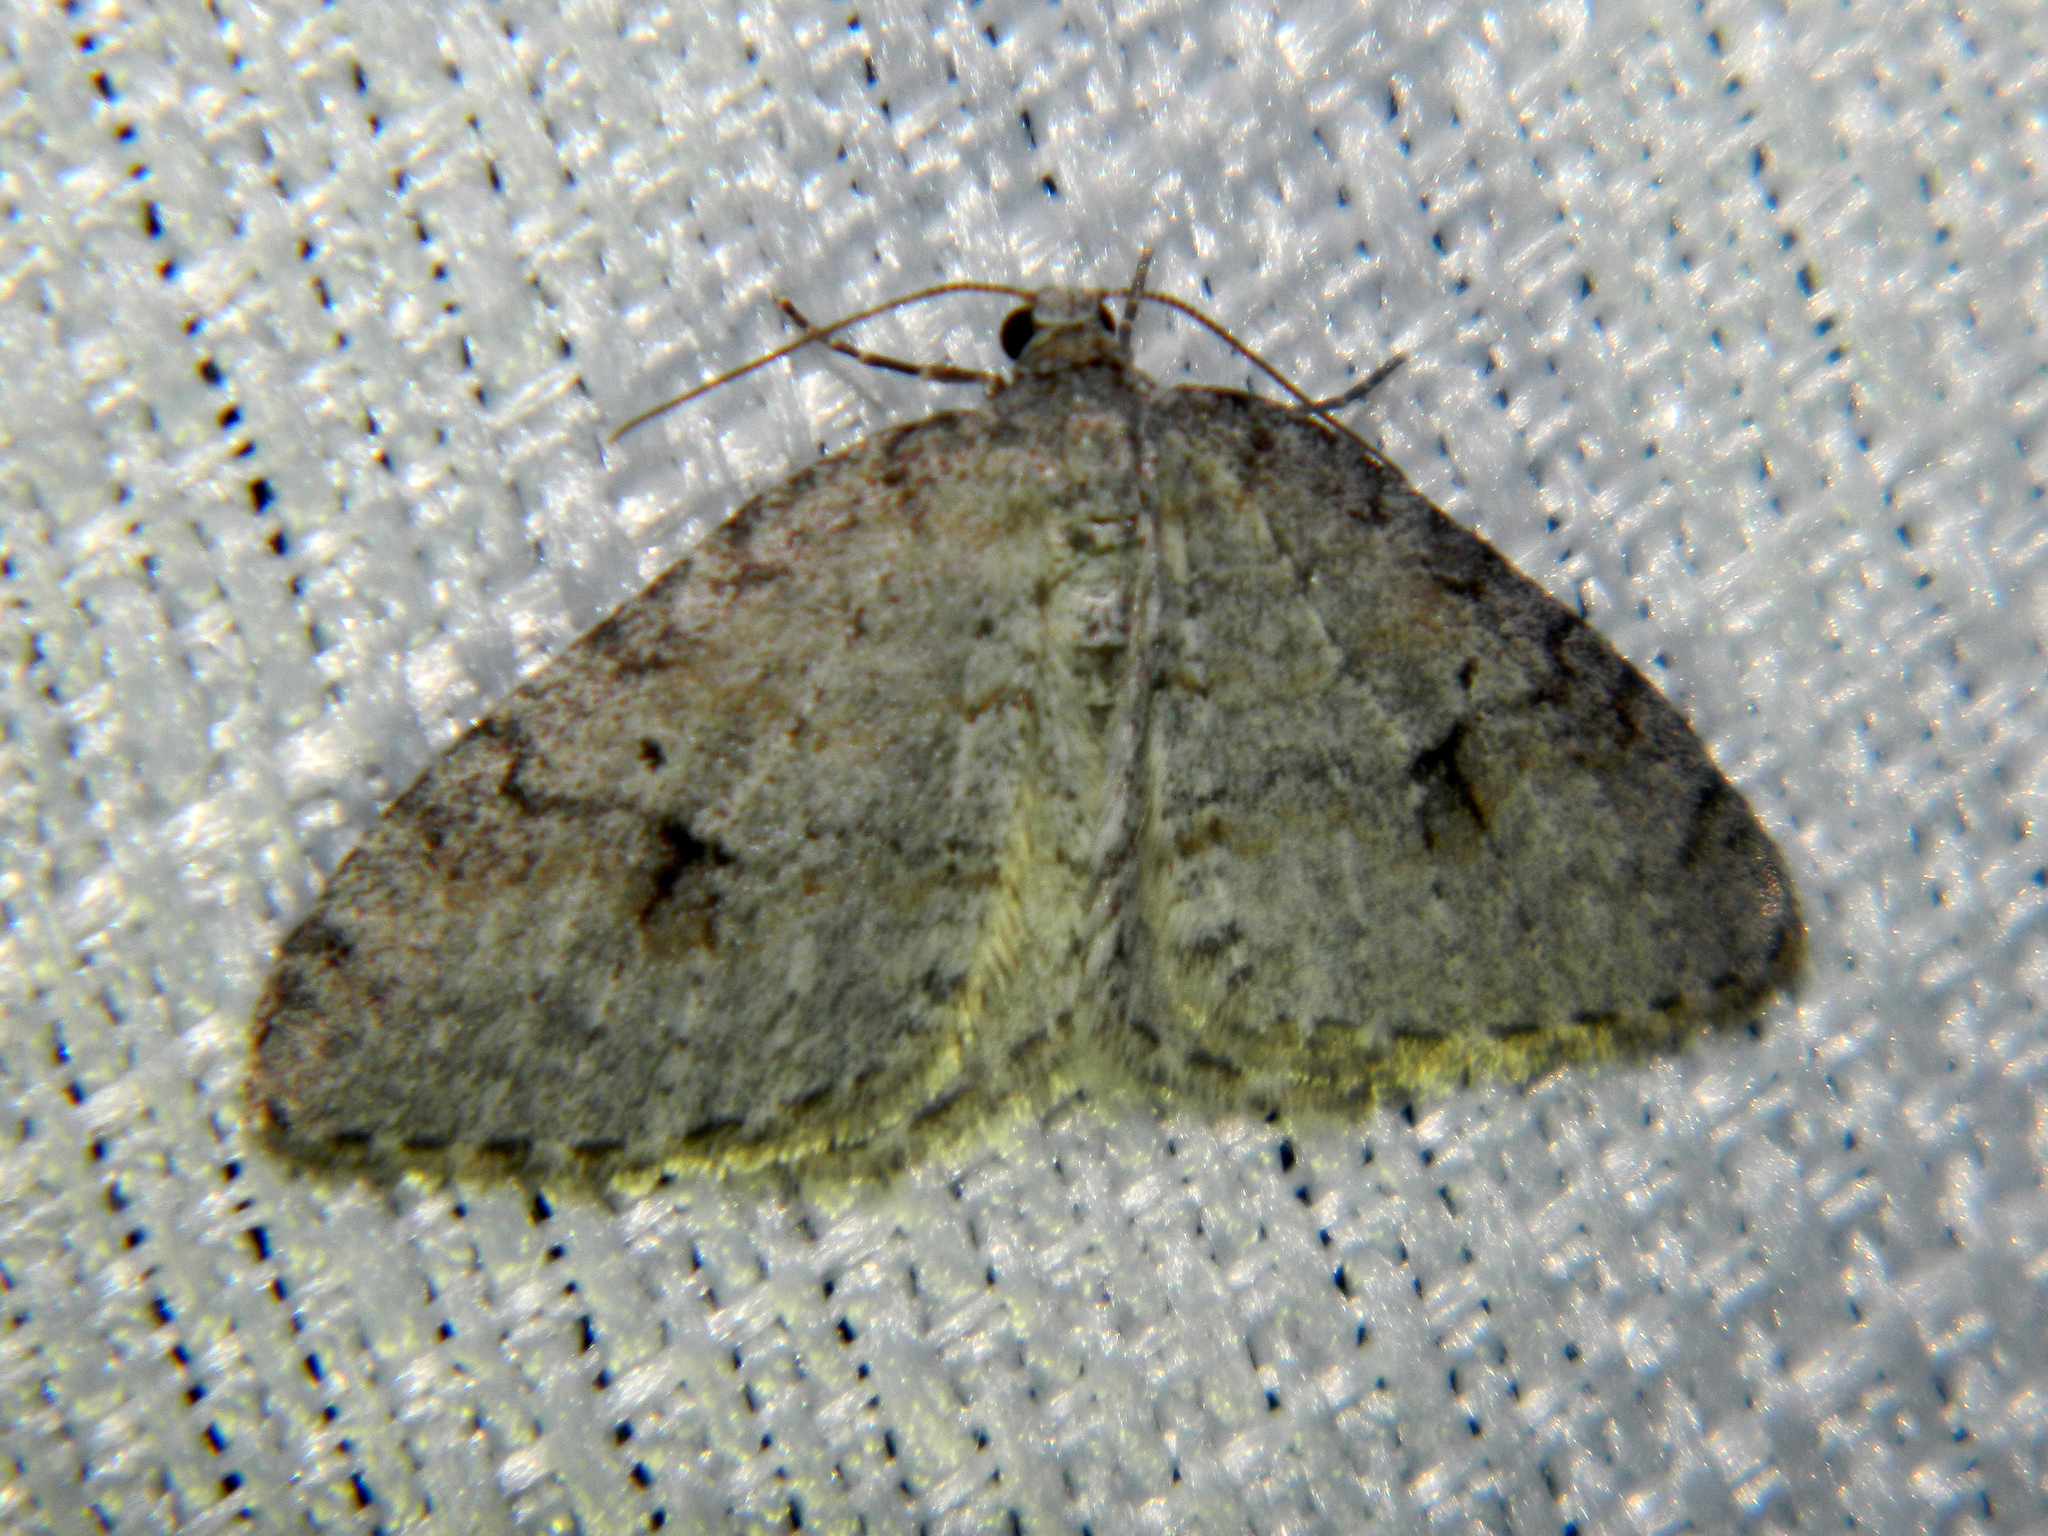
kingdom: Animalia
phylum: Arthropoda
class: Insecta
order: Lepidoptera
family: Geometridae
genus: Venusia
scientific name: Venusia comptaria
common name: Brown-shaded carpet
